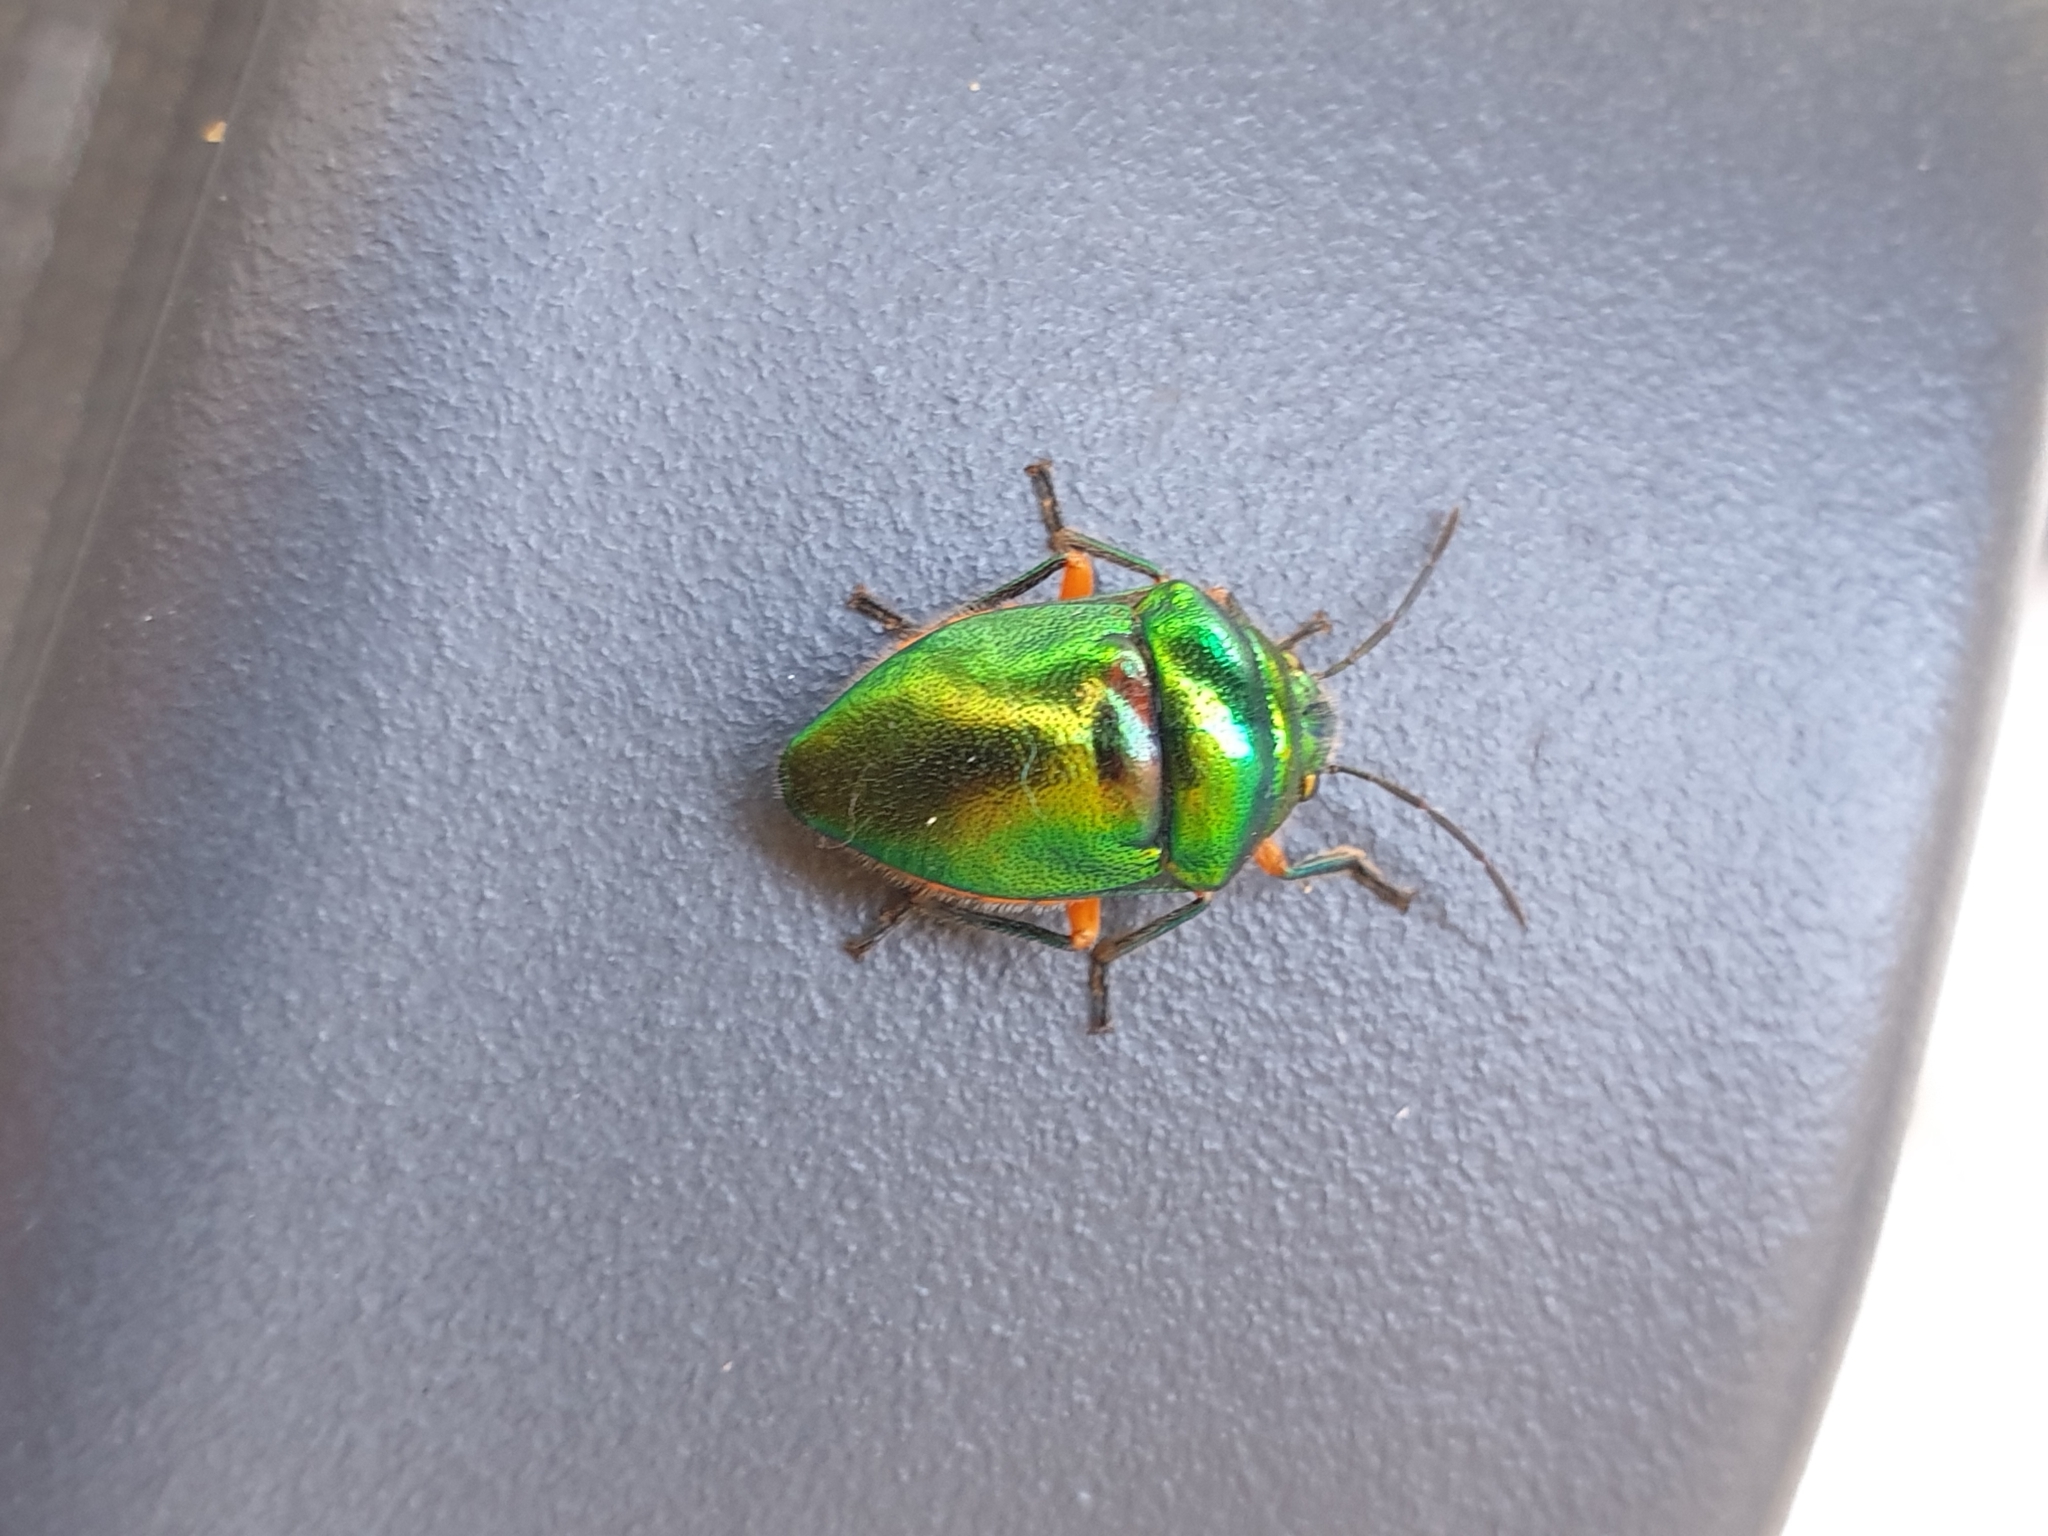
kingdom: Animalia
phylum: Arthropoda
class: Insecta
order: Hemiptera
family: Scutelleridae
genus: Lampromicra
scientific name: Lampromicra senator
